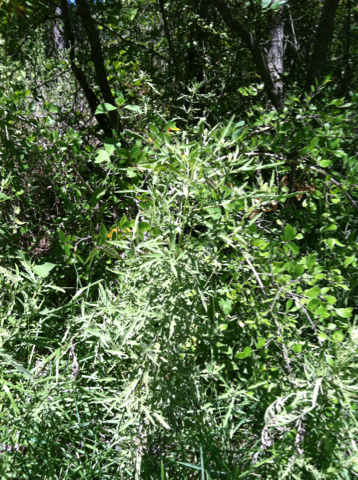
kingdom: Plantae
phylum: Tracheophyta
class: Magnoliopsida
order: Asterales
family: Asteraceae
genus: Ambrosia
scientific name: Ambrosia psilostachya
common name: Perennial ragweed
